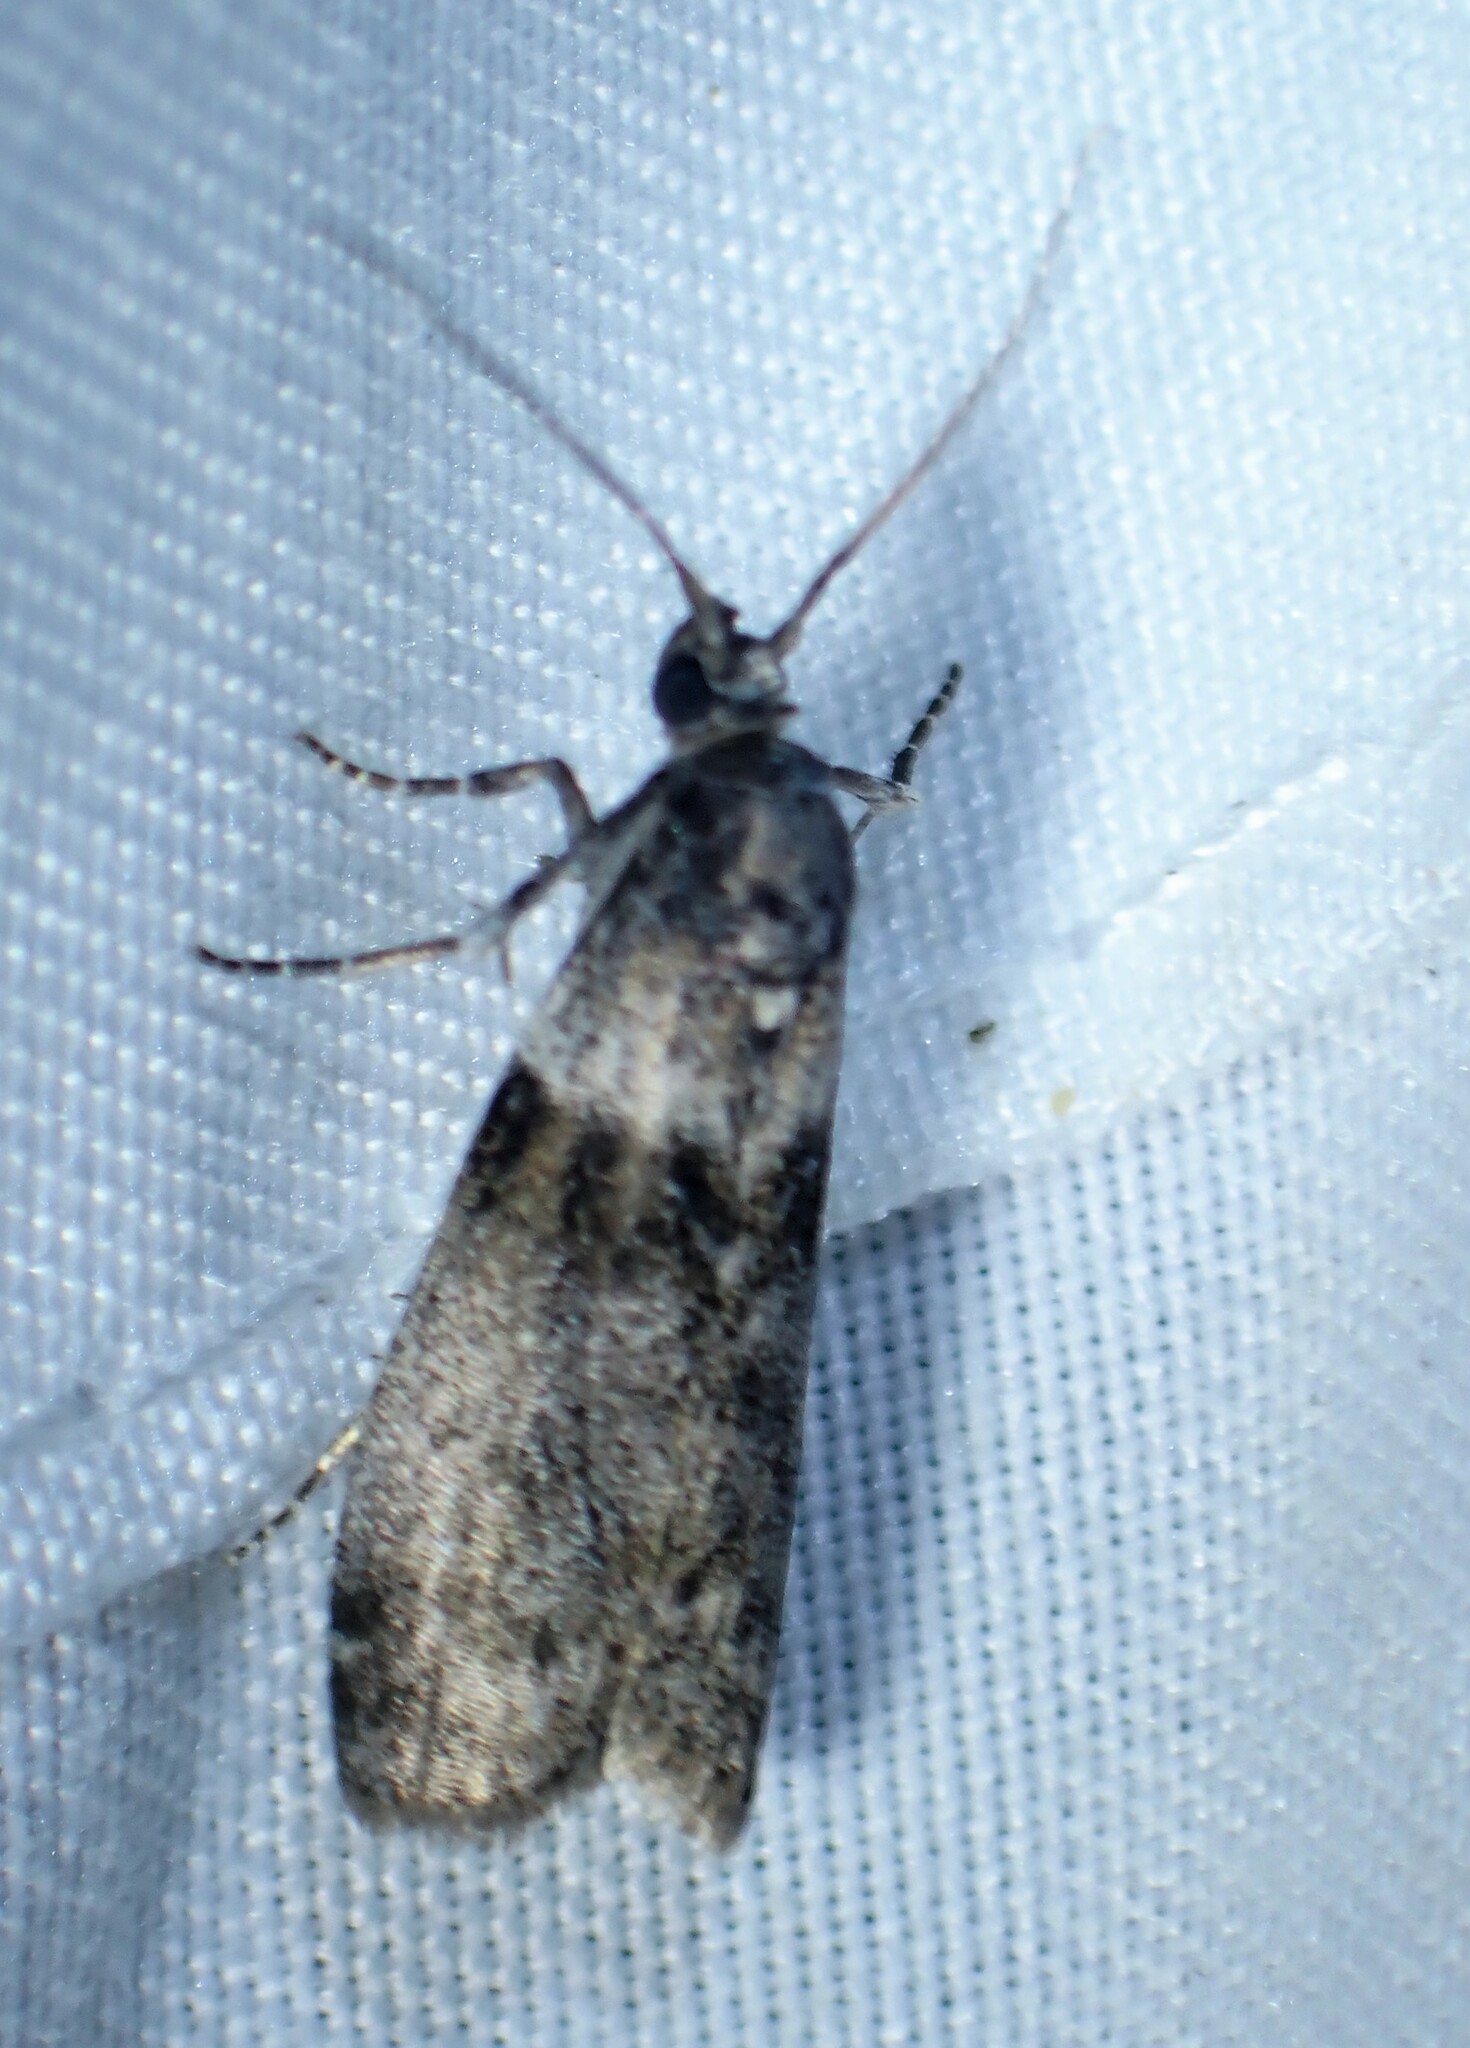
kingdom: Animalia
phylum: Arthropoda
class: Insecta
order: Lepidoptera
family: Pyralidae
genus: Meroptera
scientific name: Meroptera pravella
